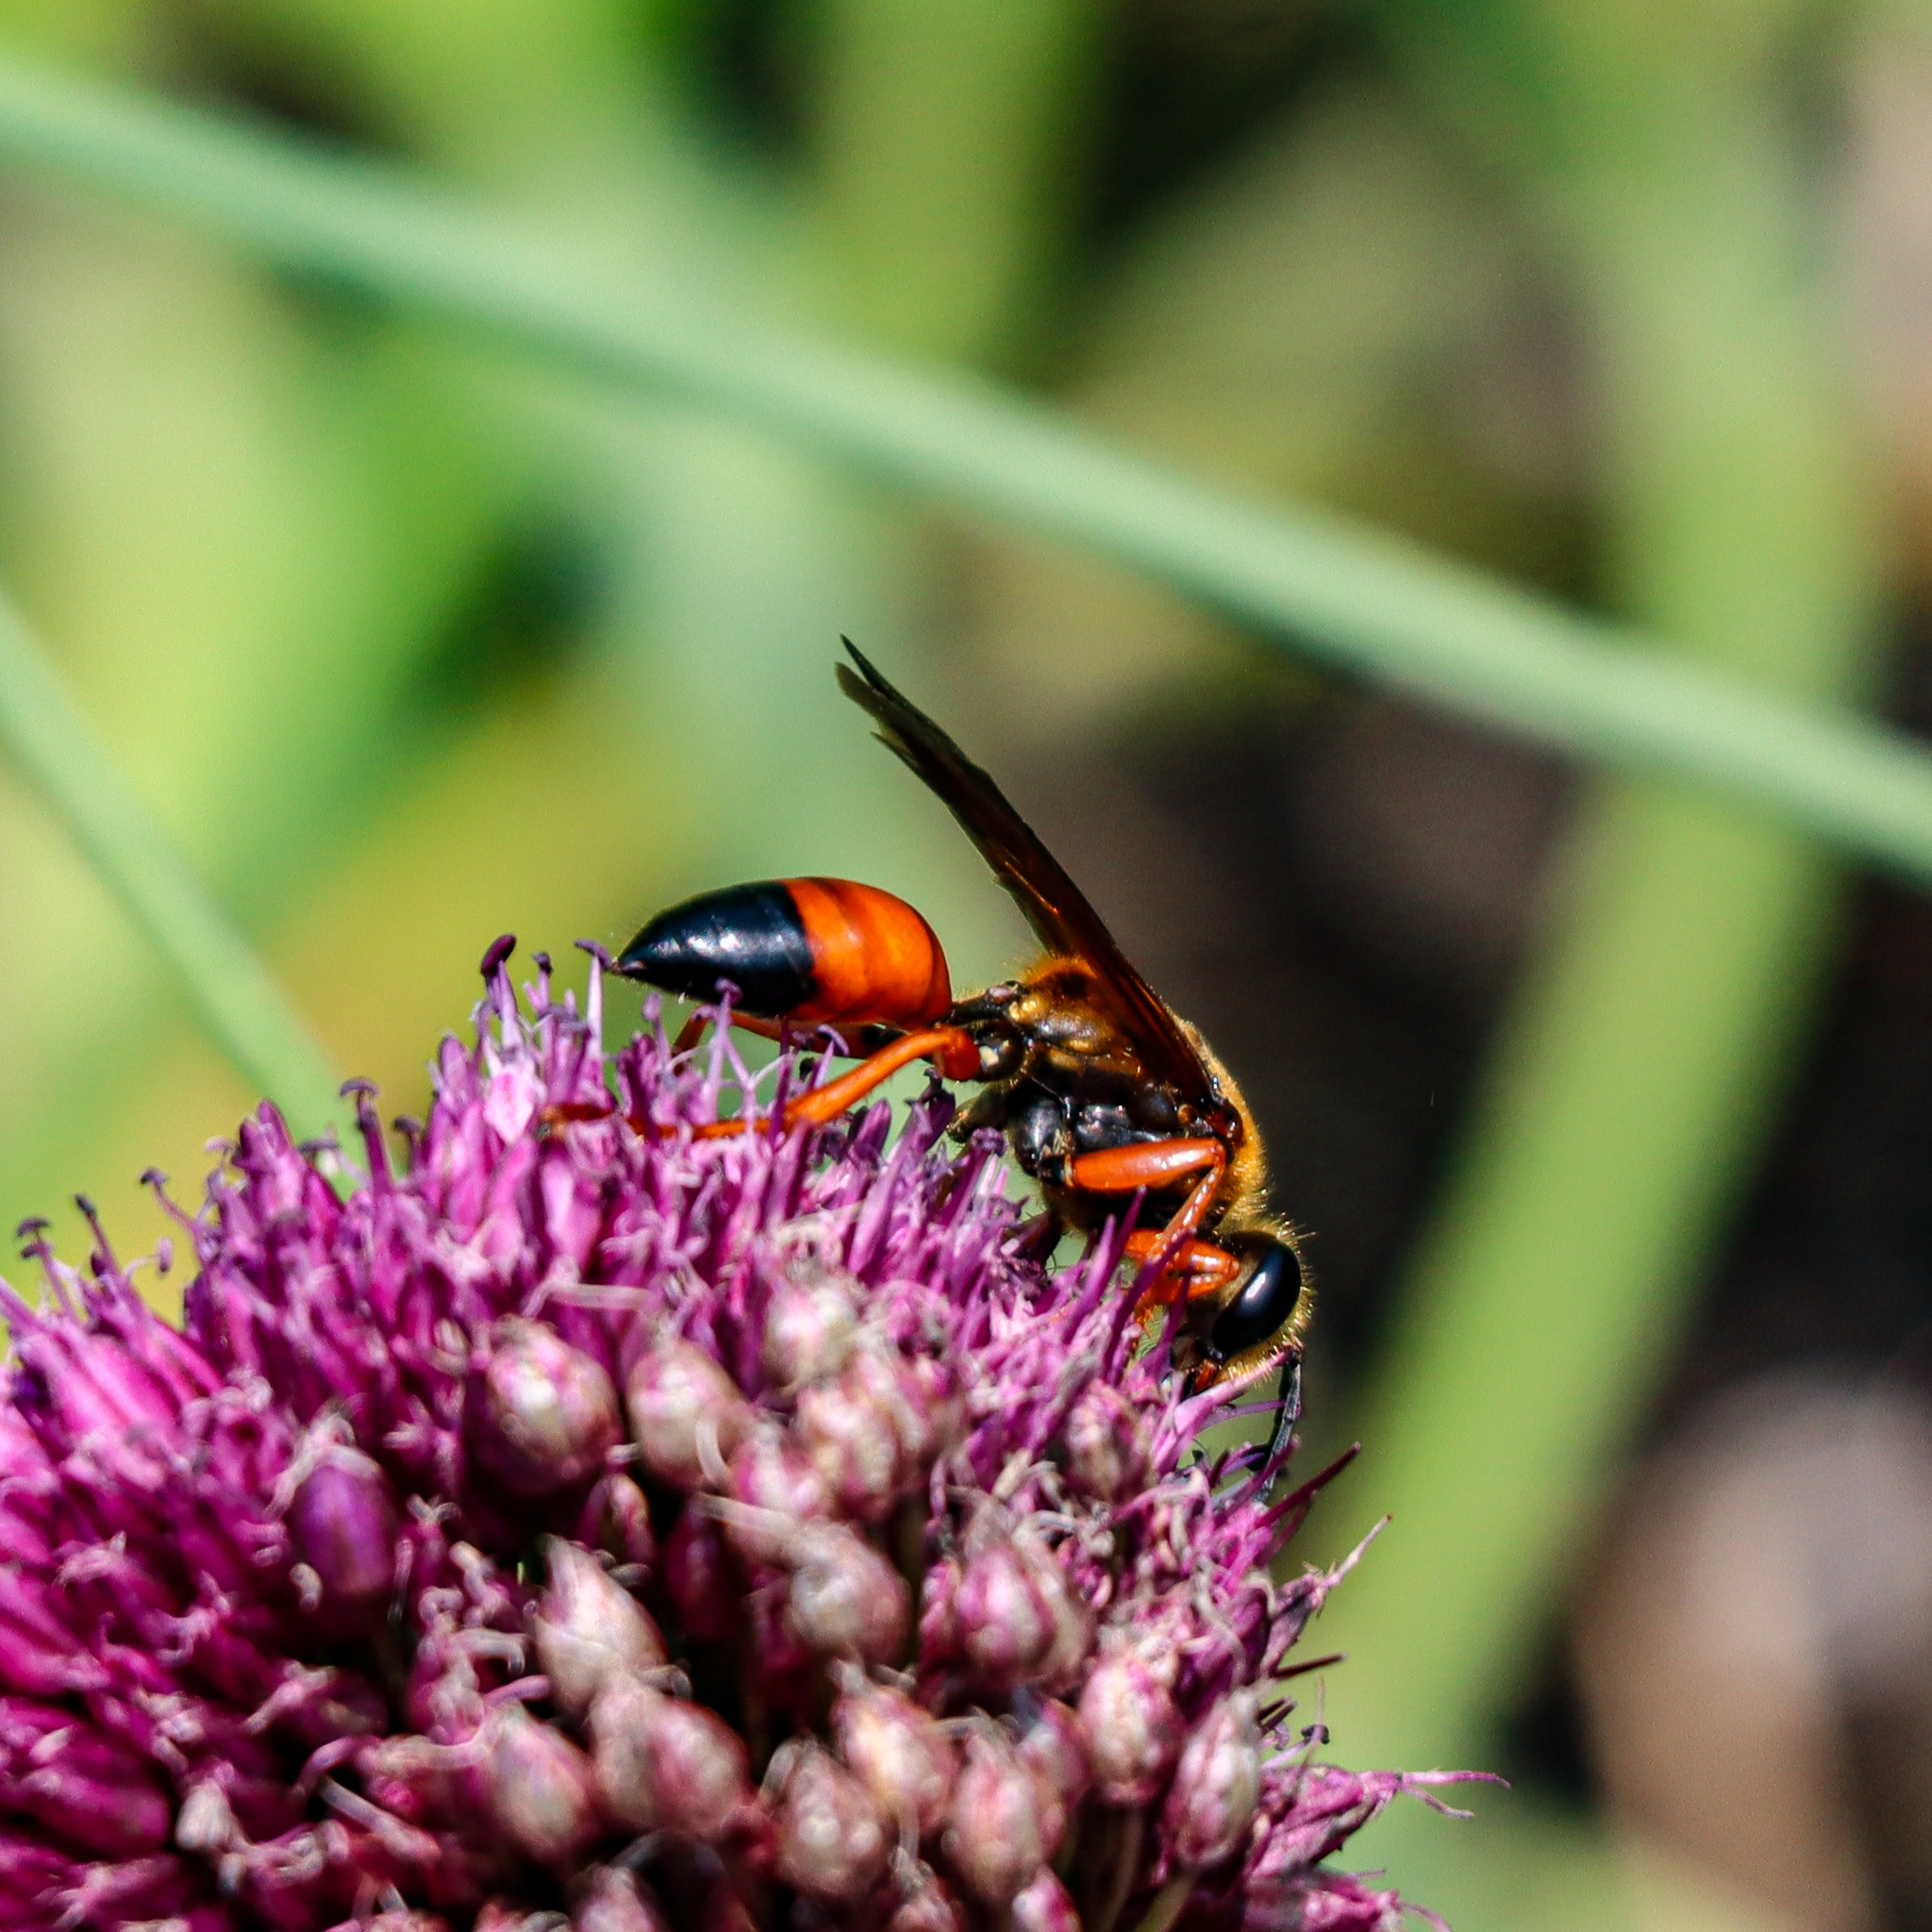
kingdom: Animalia
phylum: Arthropoda
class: Insecta
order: Hymenoptera
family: Sphecidae
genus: Sphex
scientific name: Sphex ichneumoneus
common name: Great golden digger wasp
